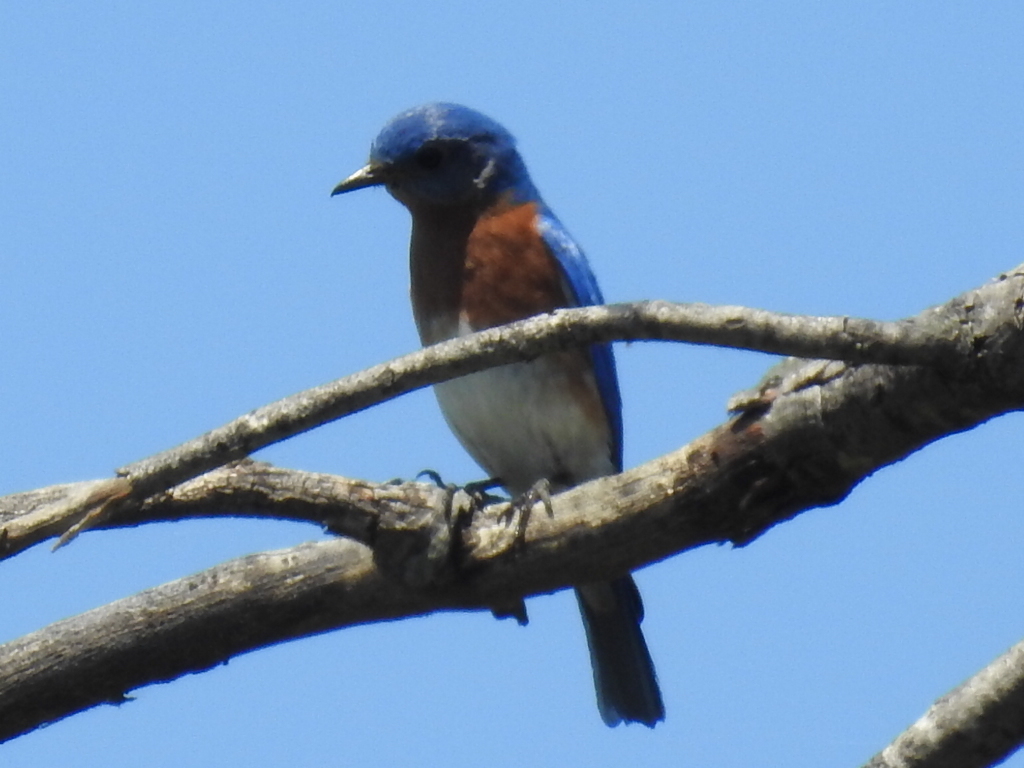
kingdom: Animalia
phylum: Chordata
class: Aves
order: Passeriformes
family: Turdidae
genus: Sialia
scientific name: Sialia sialis
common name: Eastern bluebird
